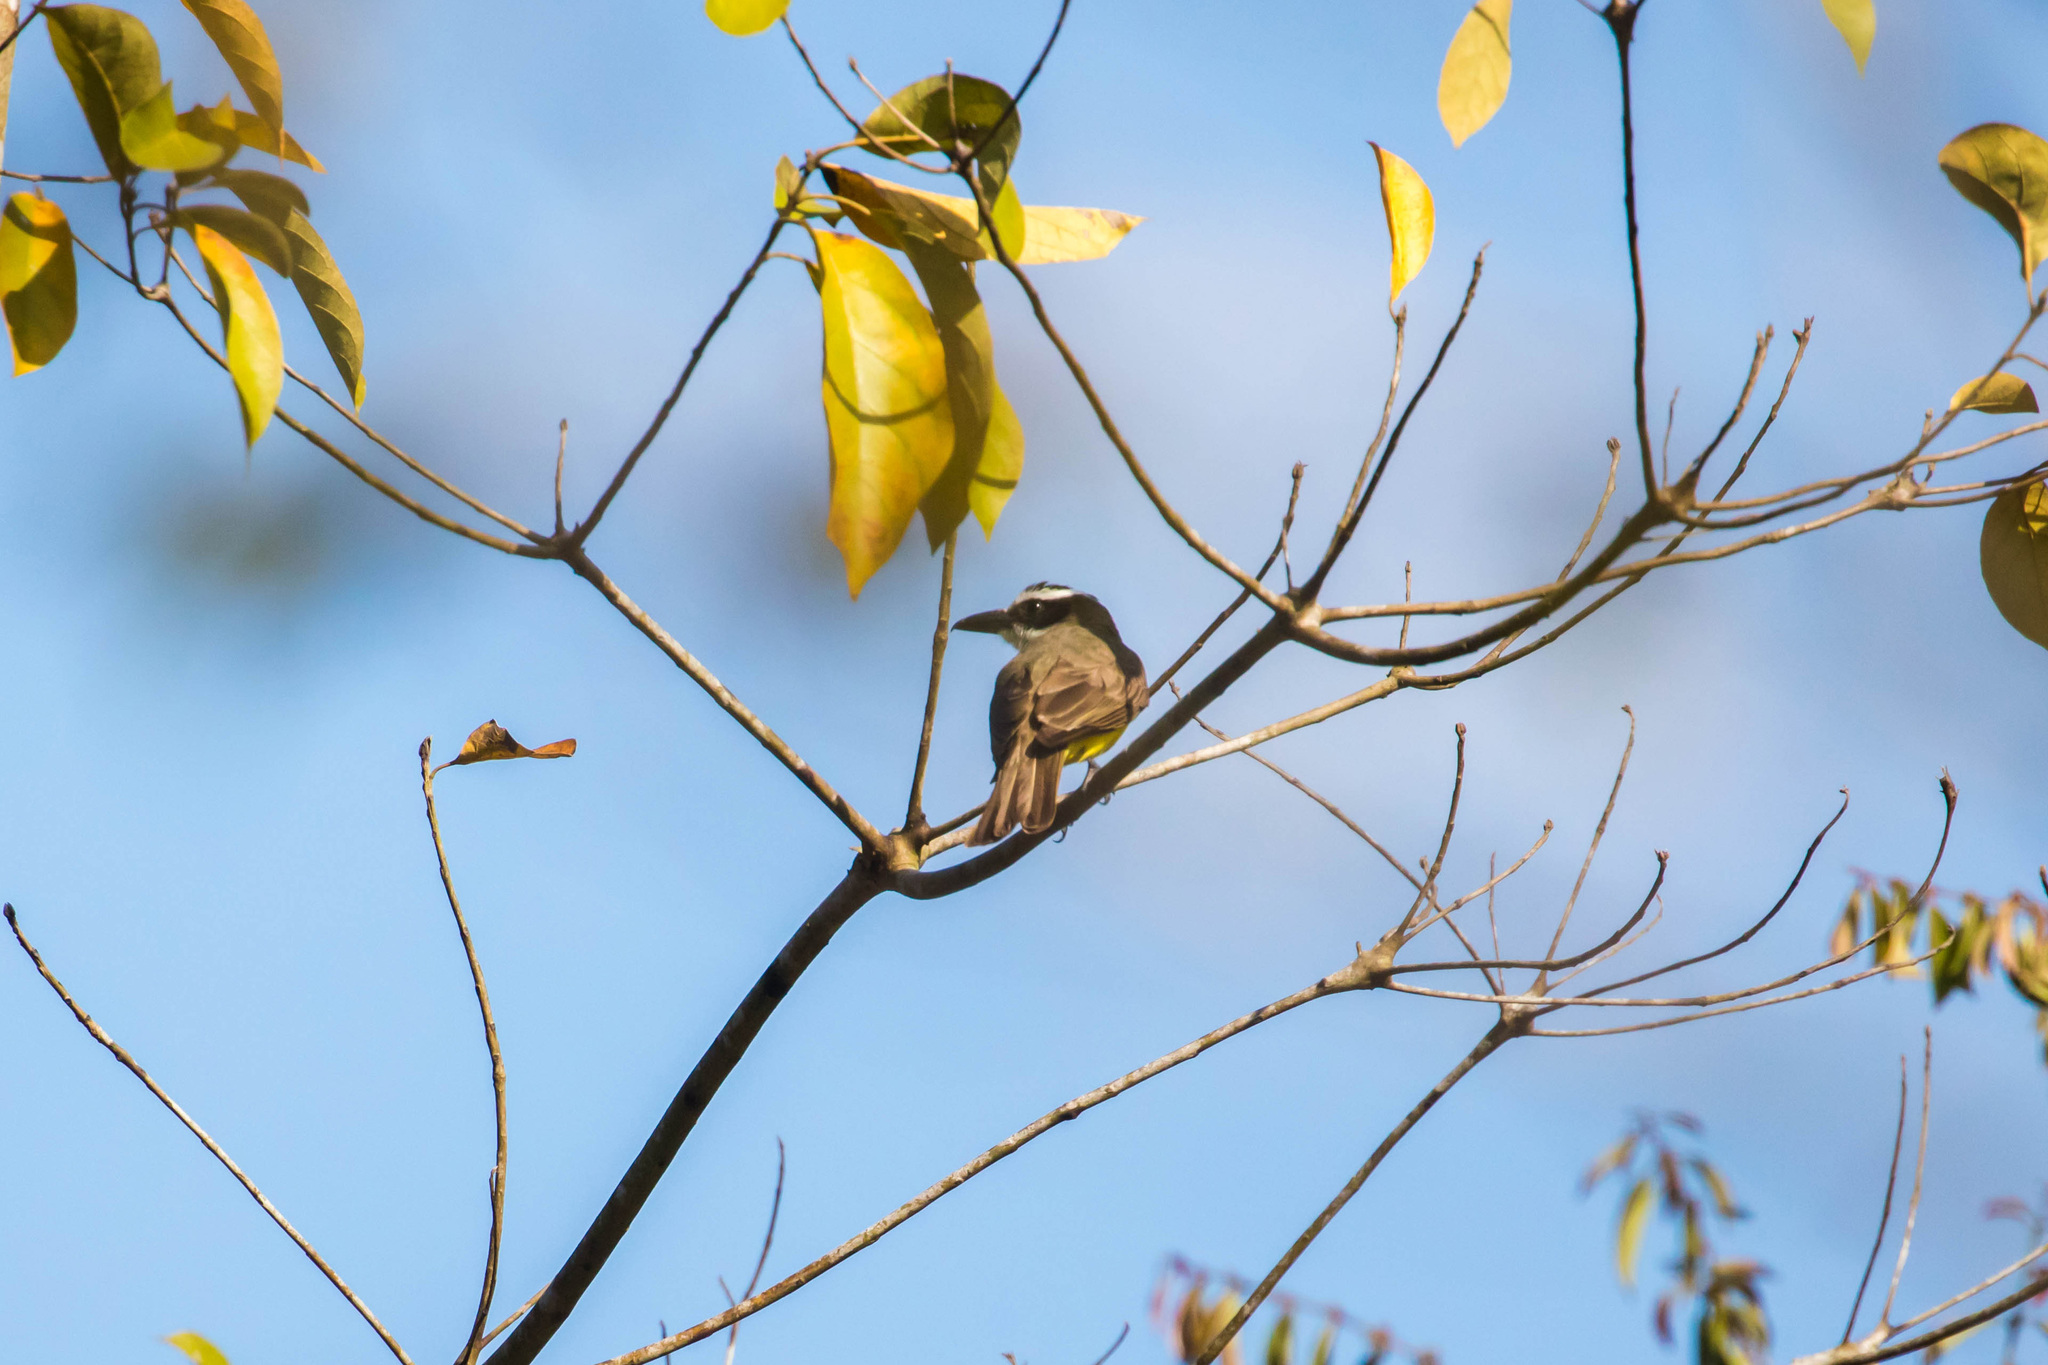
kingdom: Animalia
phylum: Chordata
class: Aves
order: Passeriformes
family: Tyrannidae
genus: Megarynchus
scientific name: Megarynchus pitangua
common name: Boat-billed flycatcher
